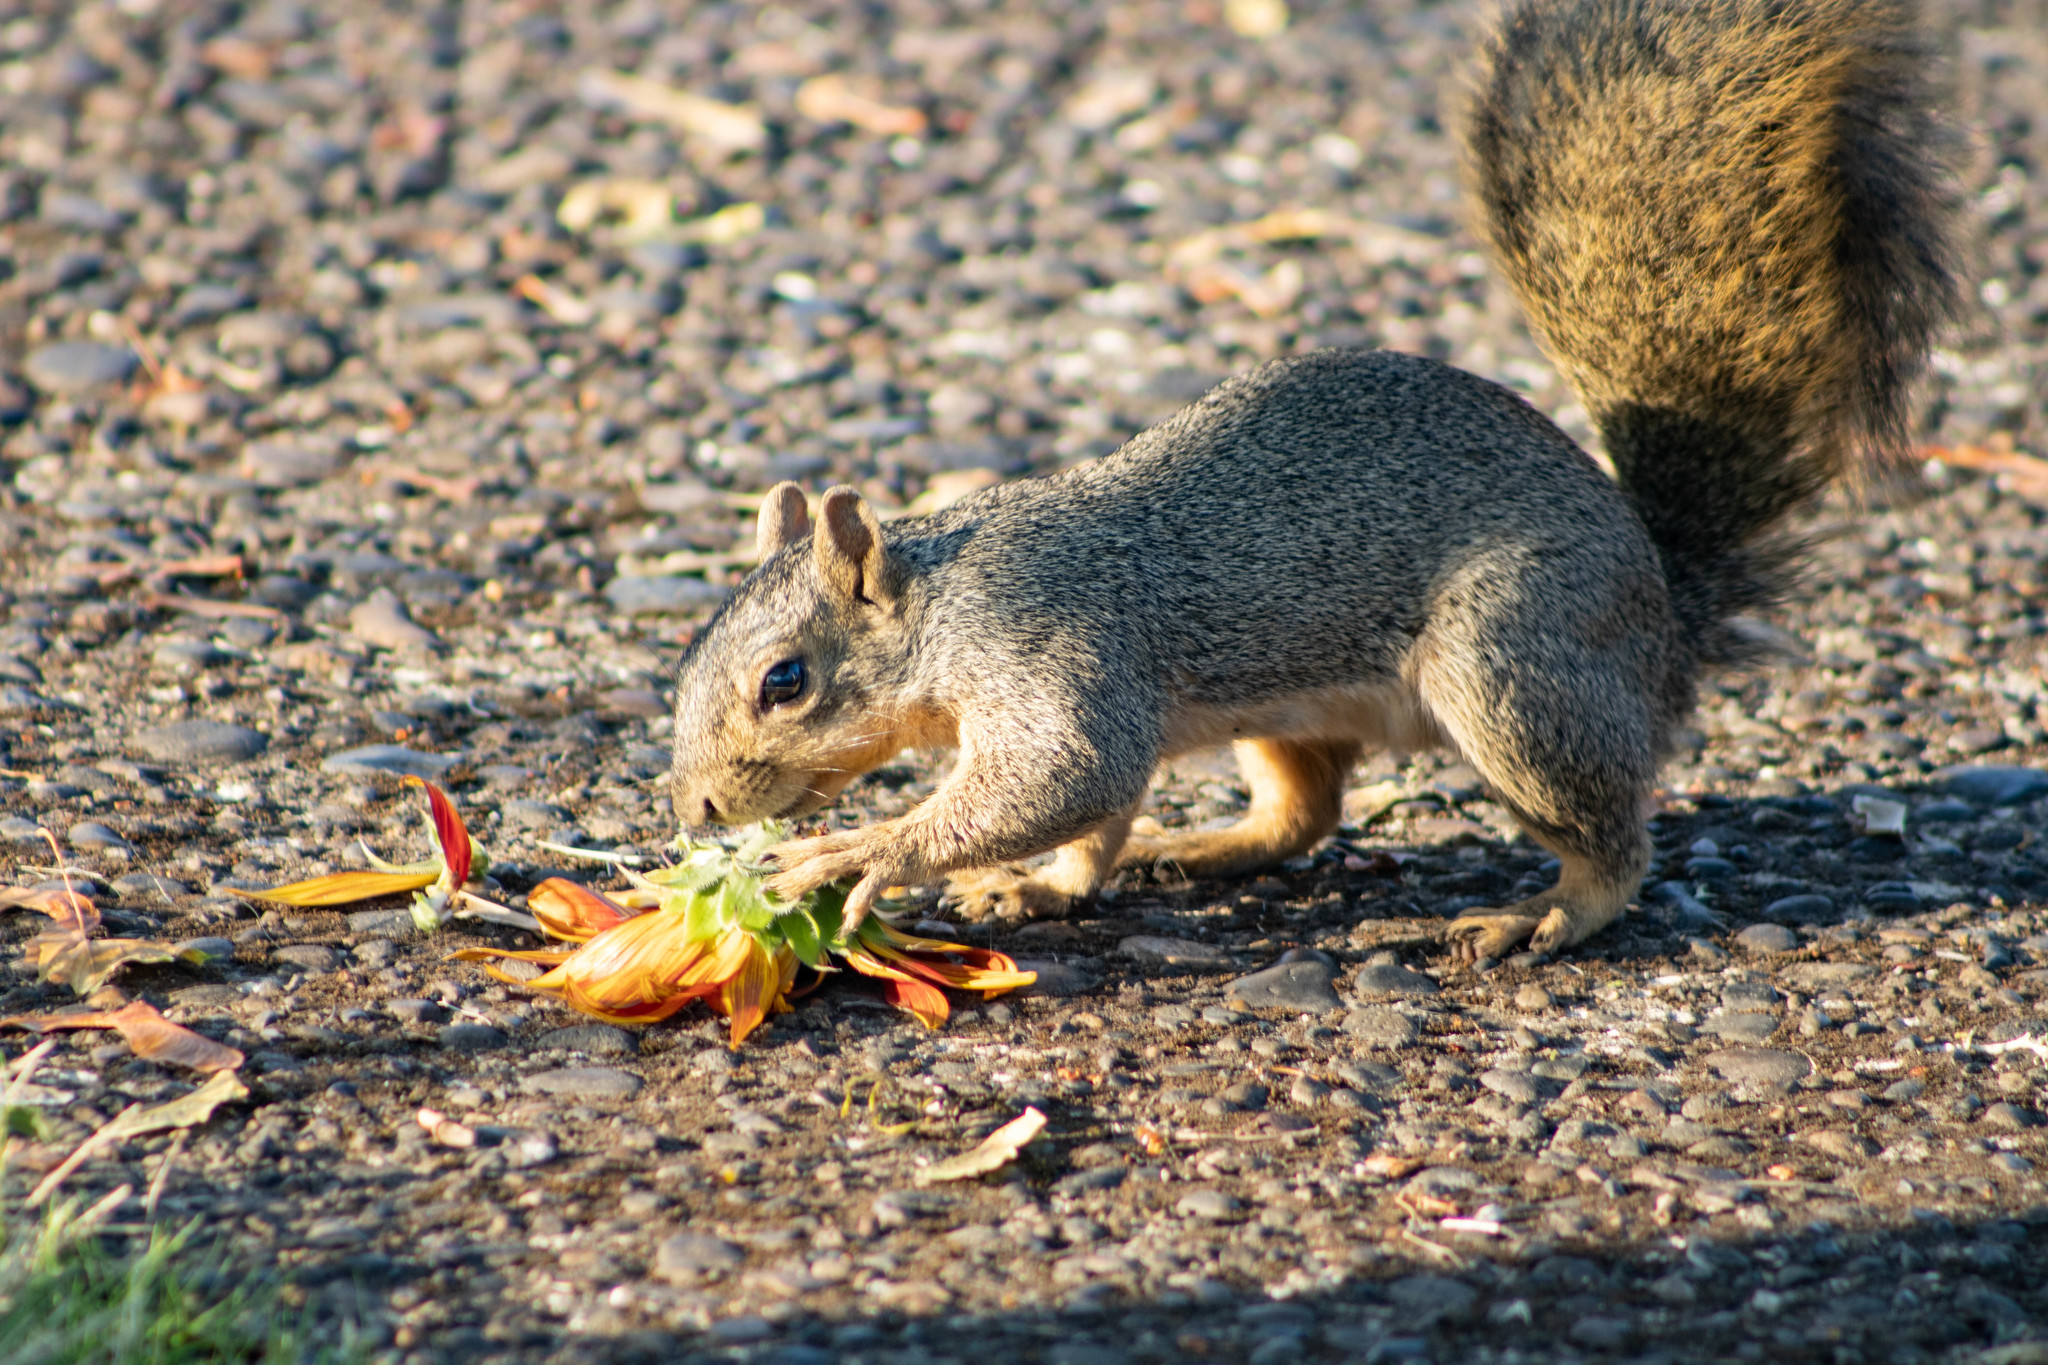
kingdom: Animalia
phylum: Chordata
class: Mammalia
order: Rodentia
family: Sciuridae
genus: Sciurus
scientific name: Sciurus niger
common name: Fox squirrel
